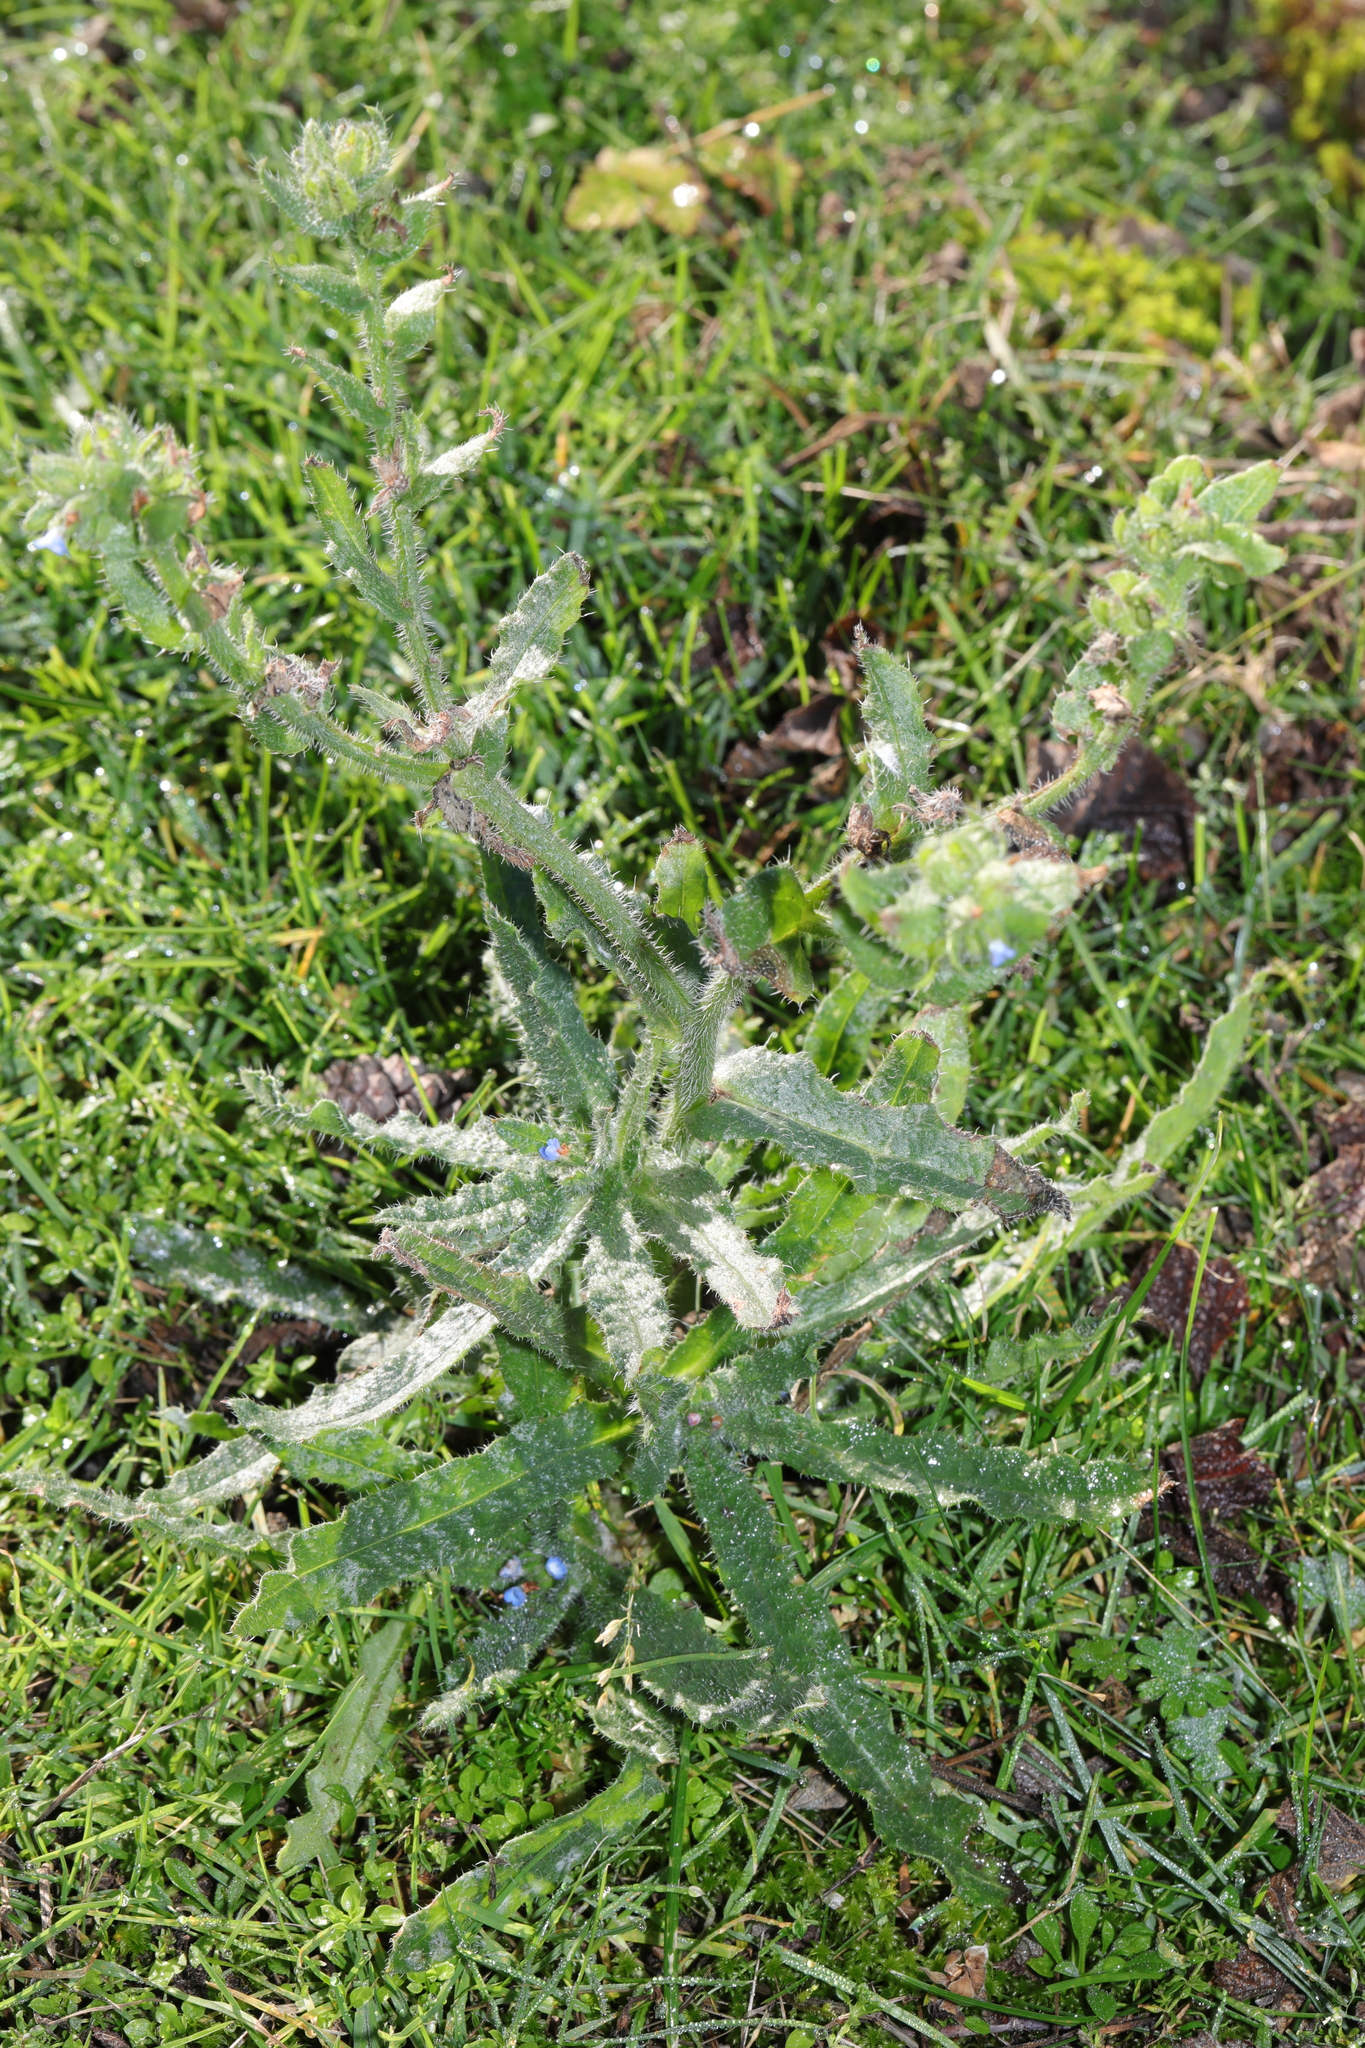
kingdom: Plantae
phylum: Tracheophyta
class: Magnoliopsida
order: Boraginales
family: Boraginaceae
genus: Lycopsis
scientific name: Lycopsis arvensis
